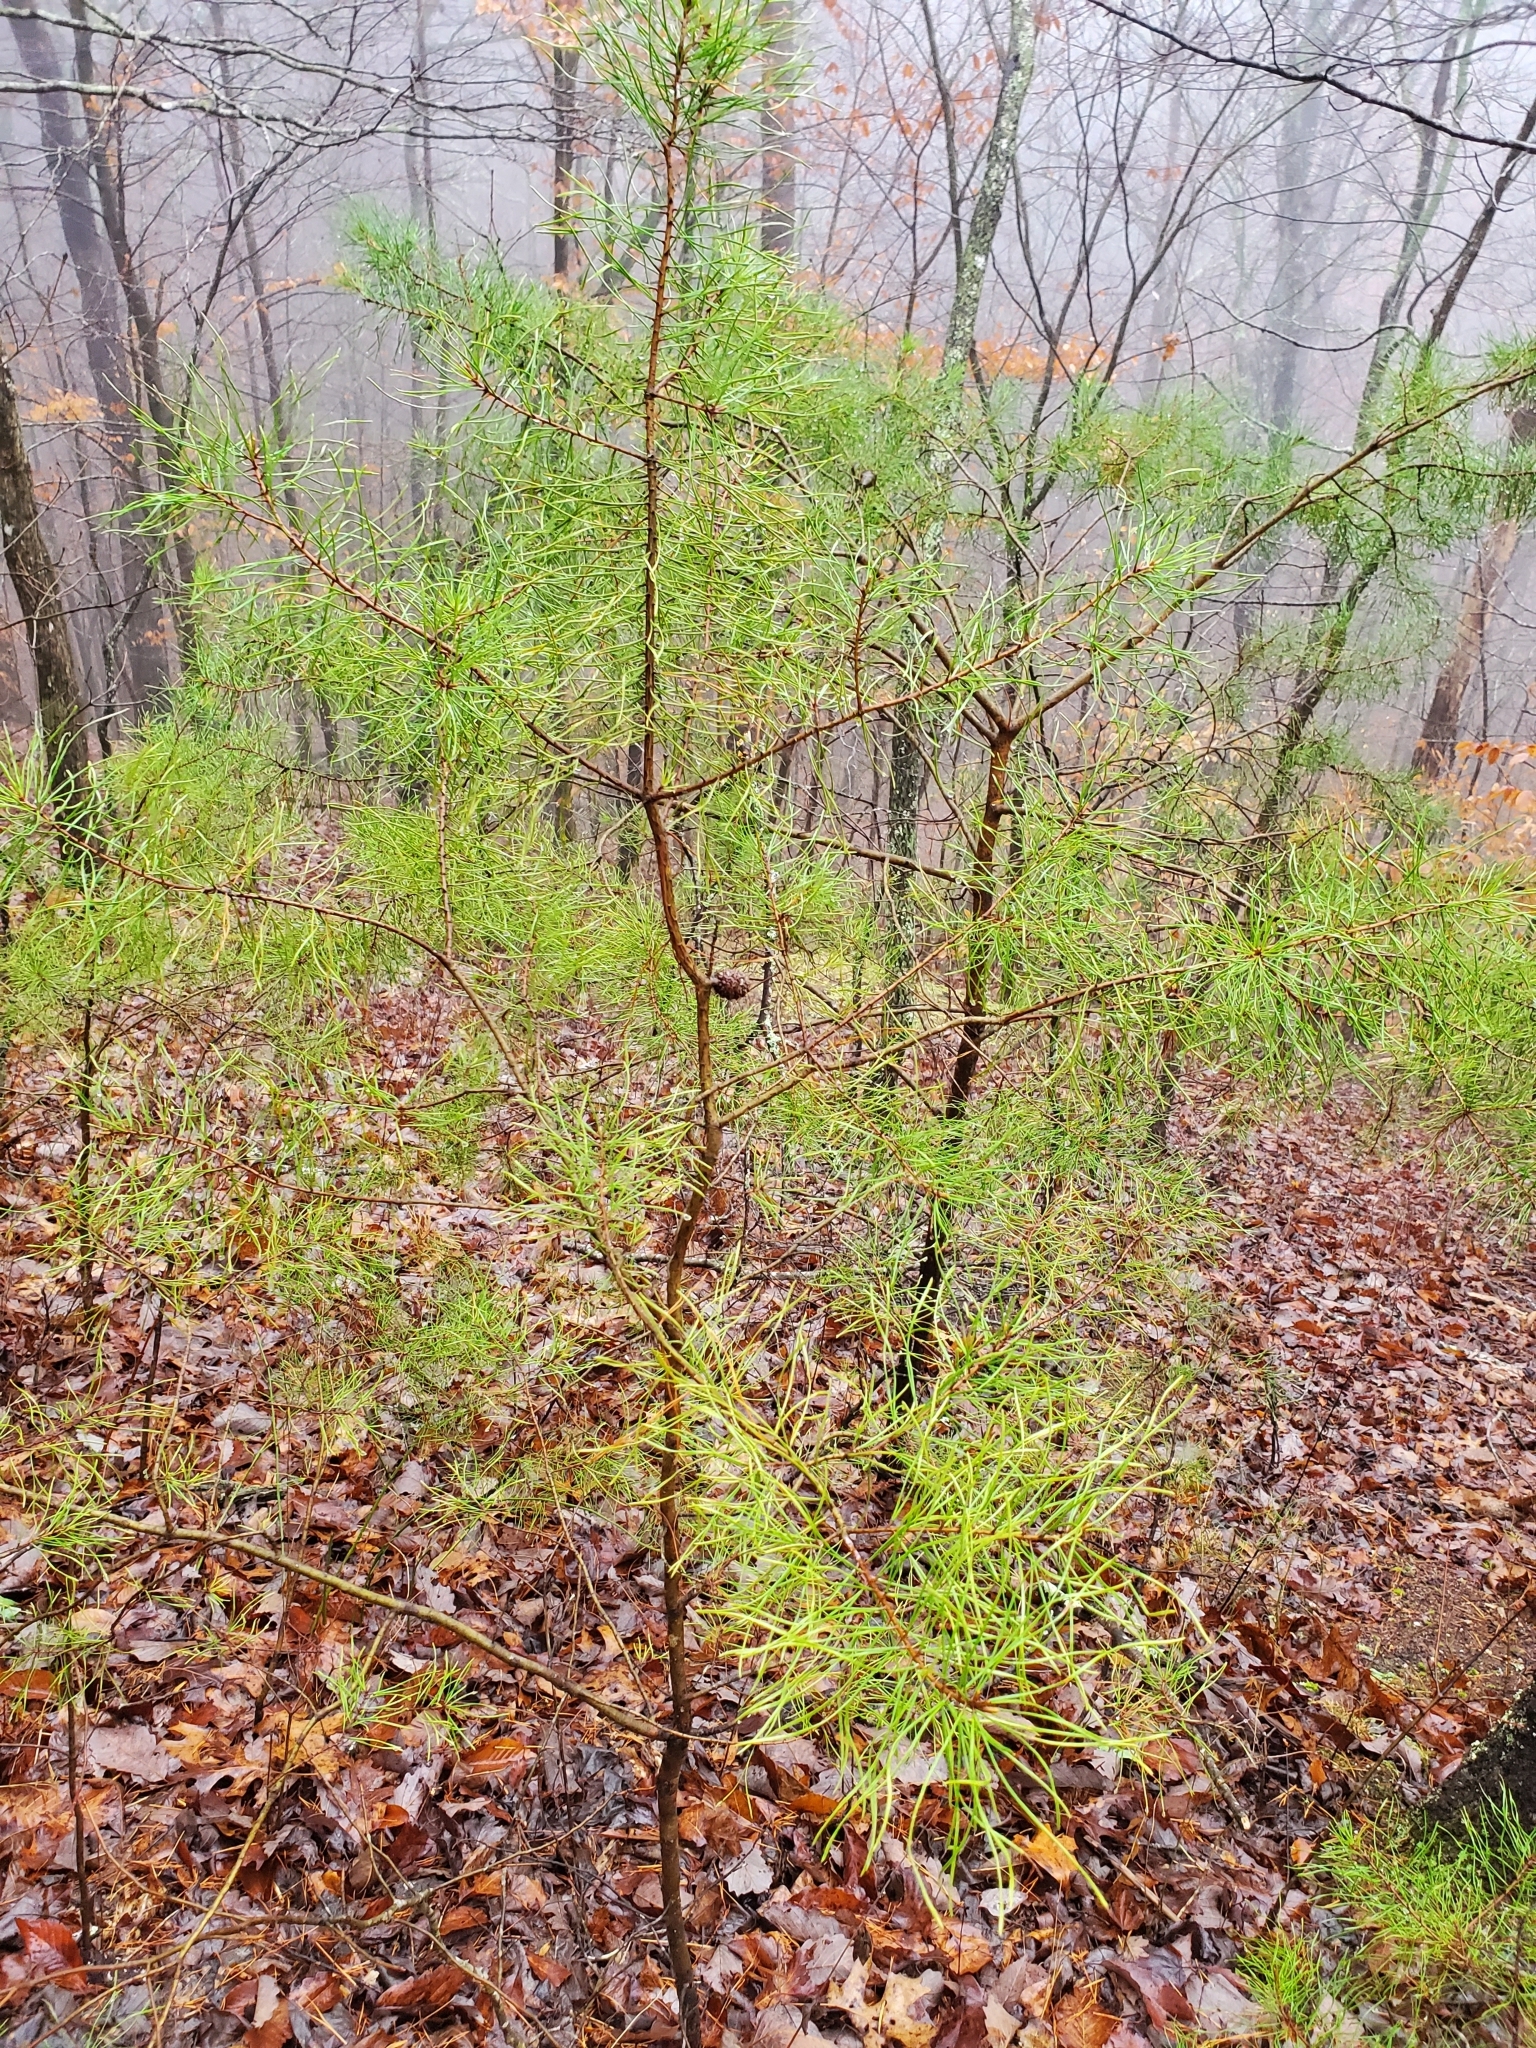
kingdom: Plantae
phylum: Tracheophyta
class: Pinopsida
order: Pinales
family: Pinaceae
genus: Pinus
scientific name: Pinus virginiana
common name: Scrub pine
